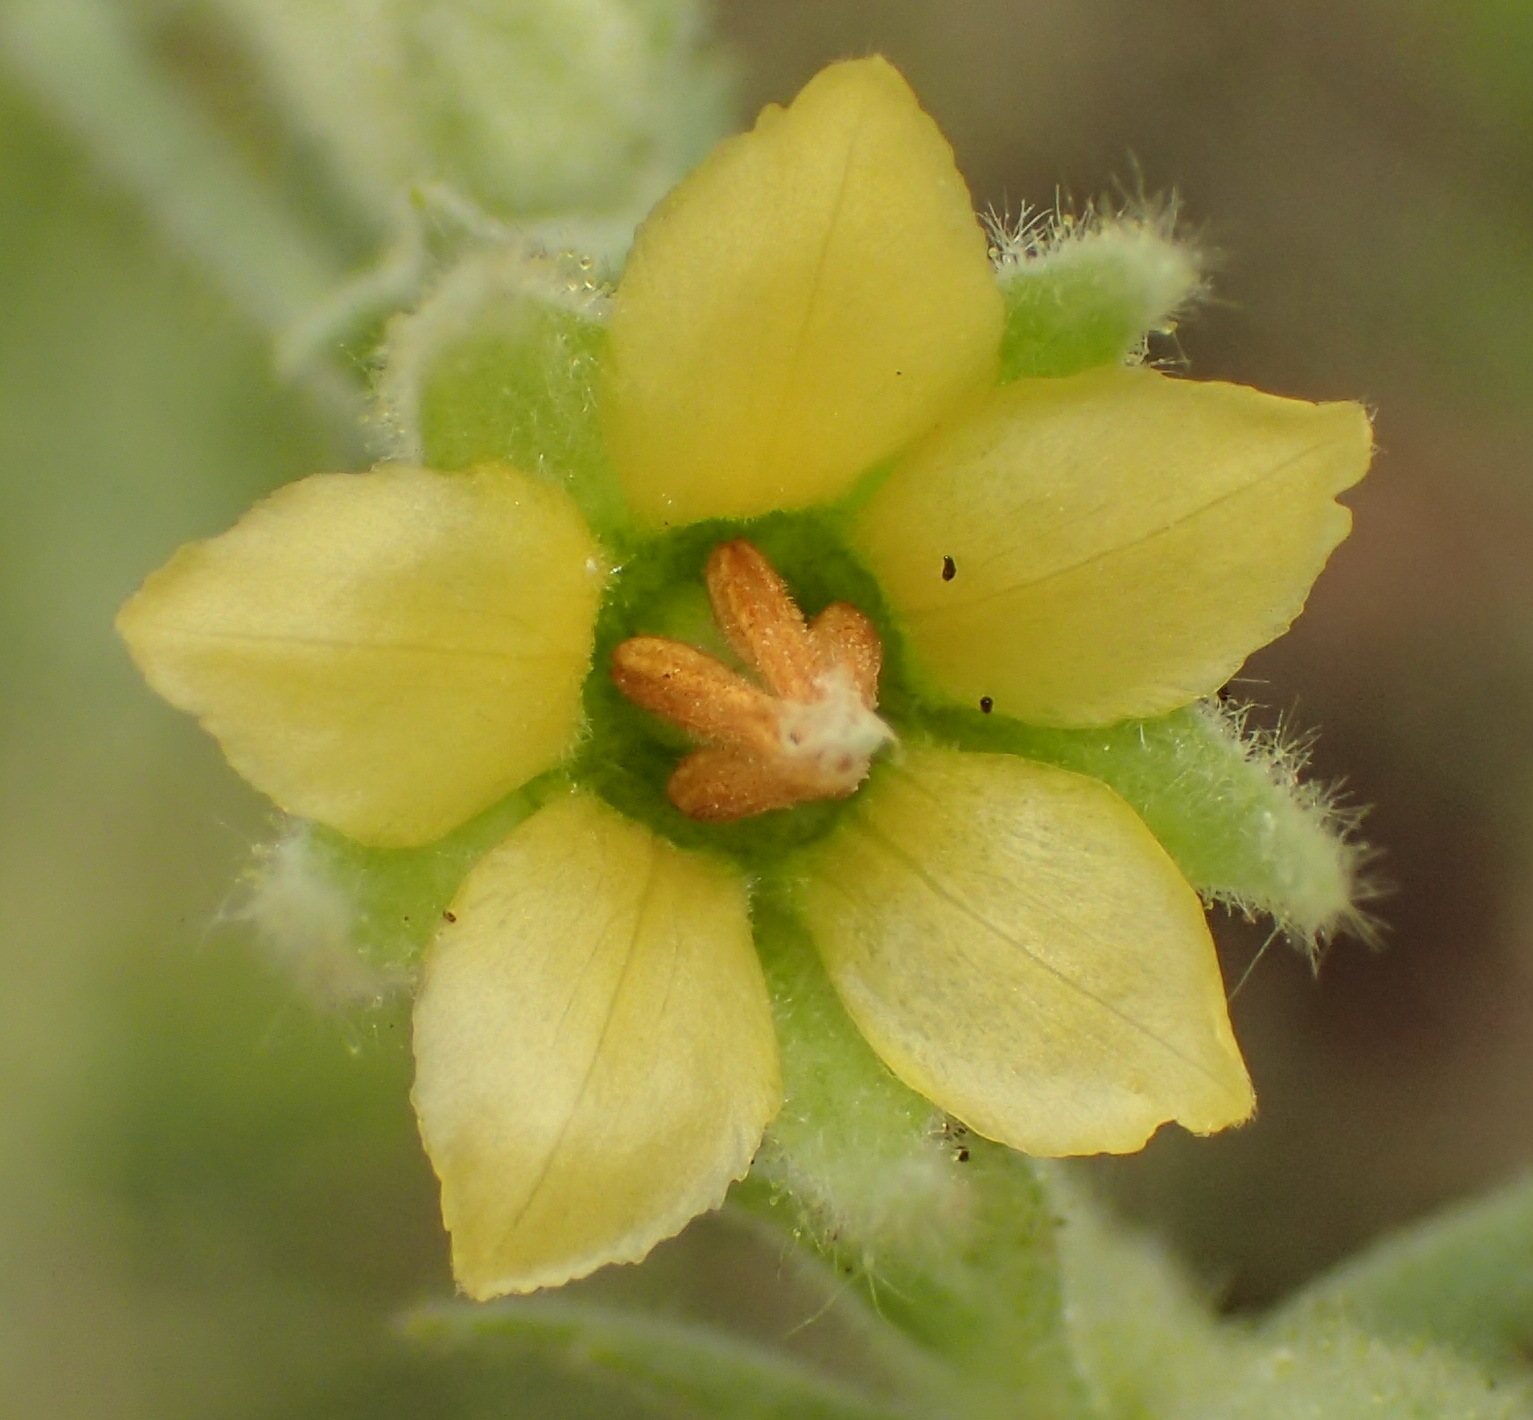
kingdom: Plantae
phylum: Tracheophyta
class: Magnoliopsida
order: Malvales
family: Malvaceae
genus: Hermannia
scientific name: Hermannia burkei
